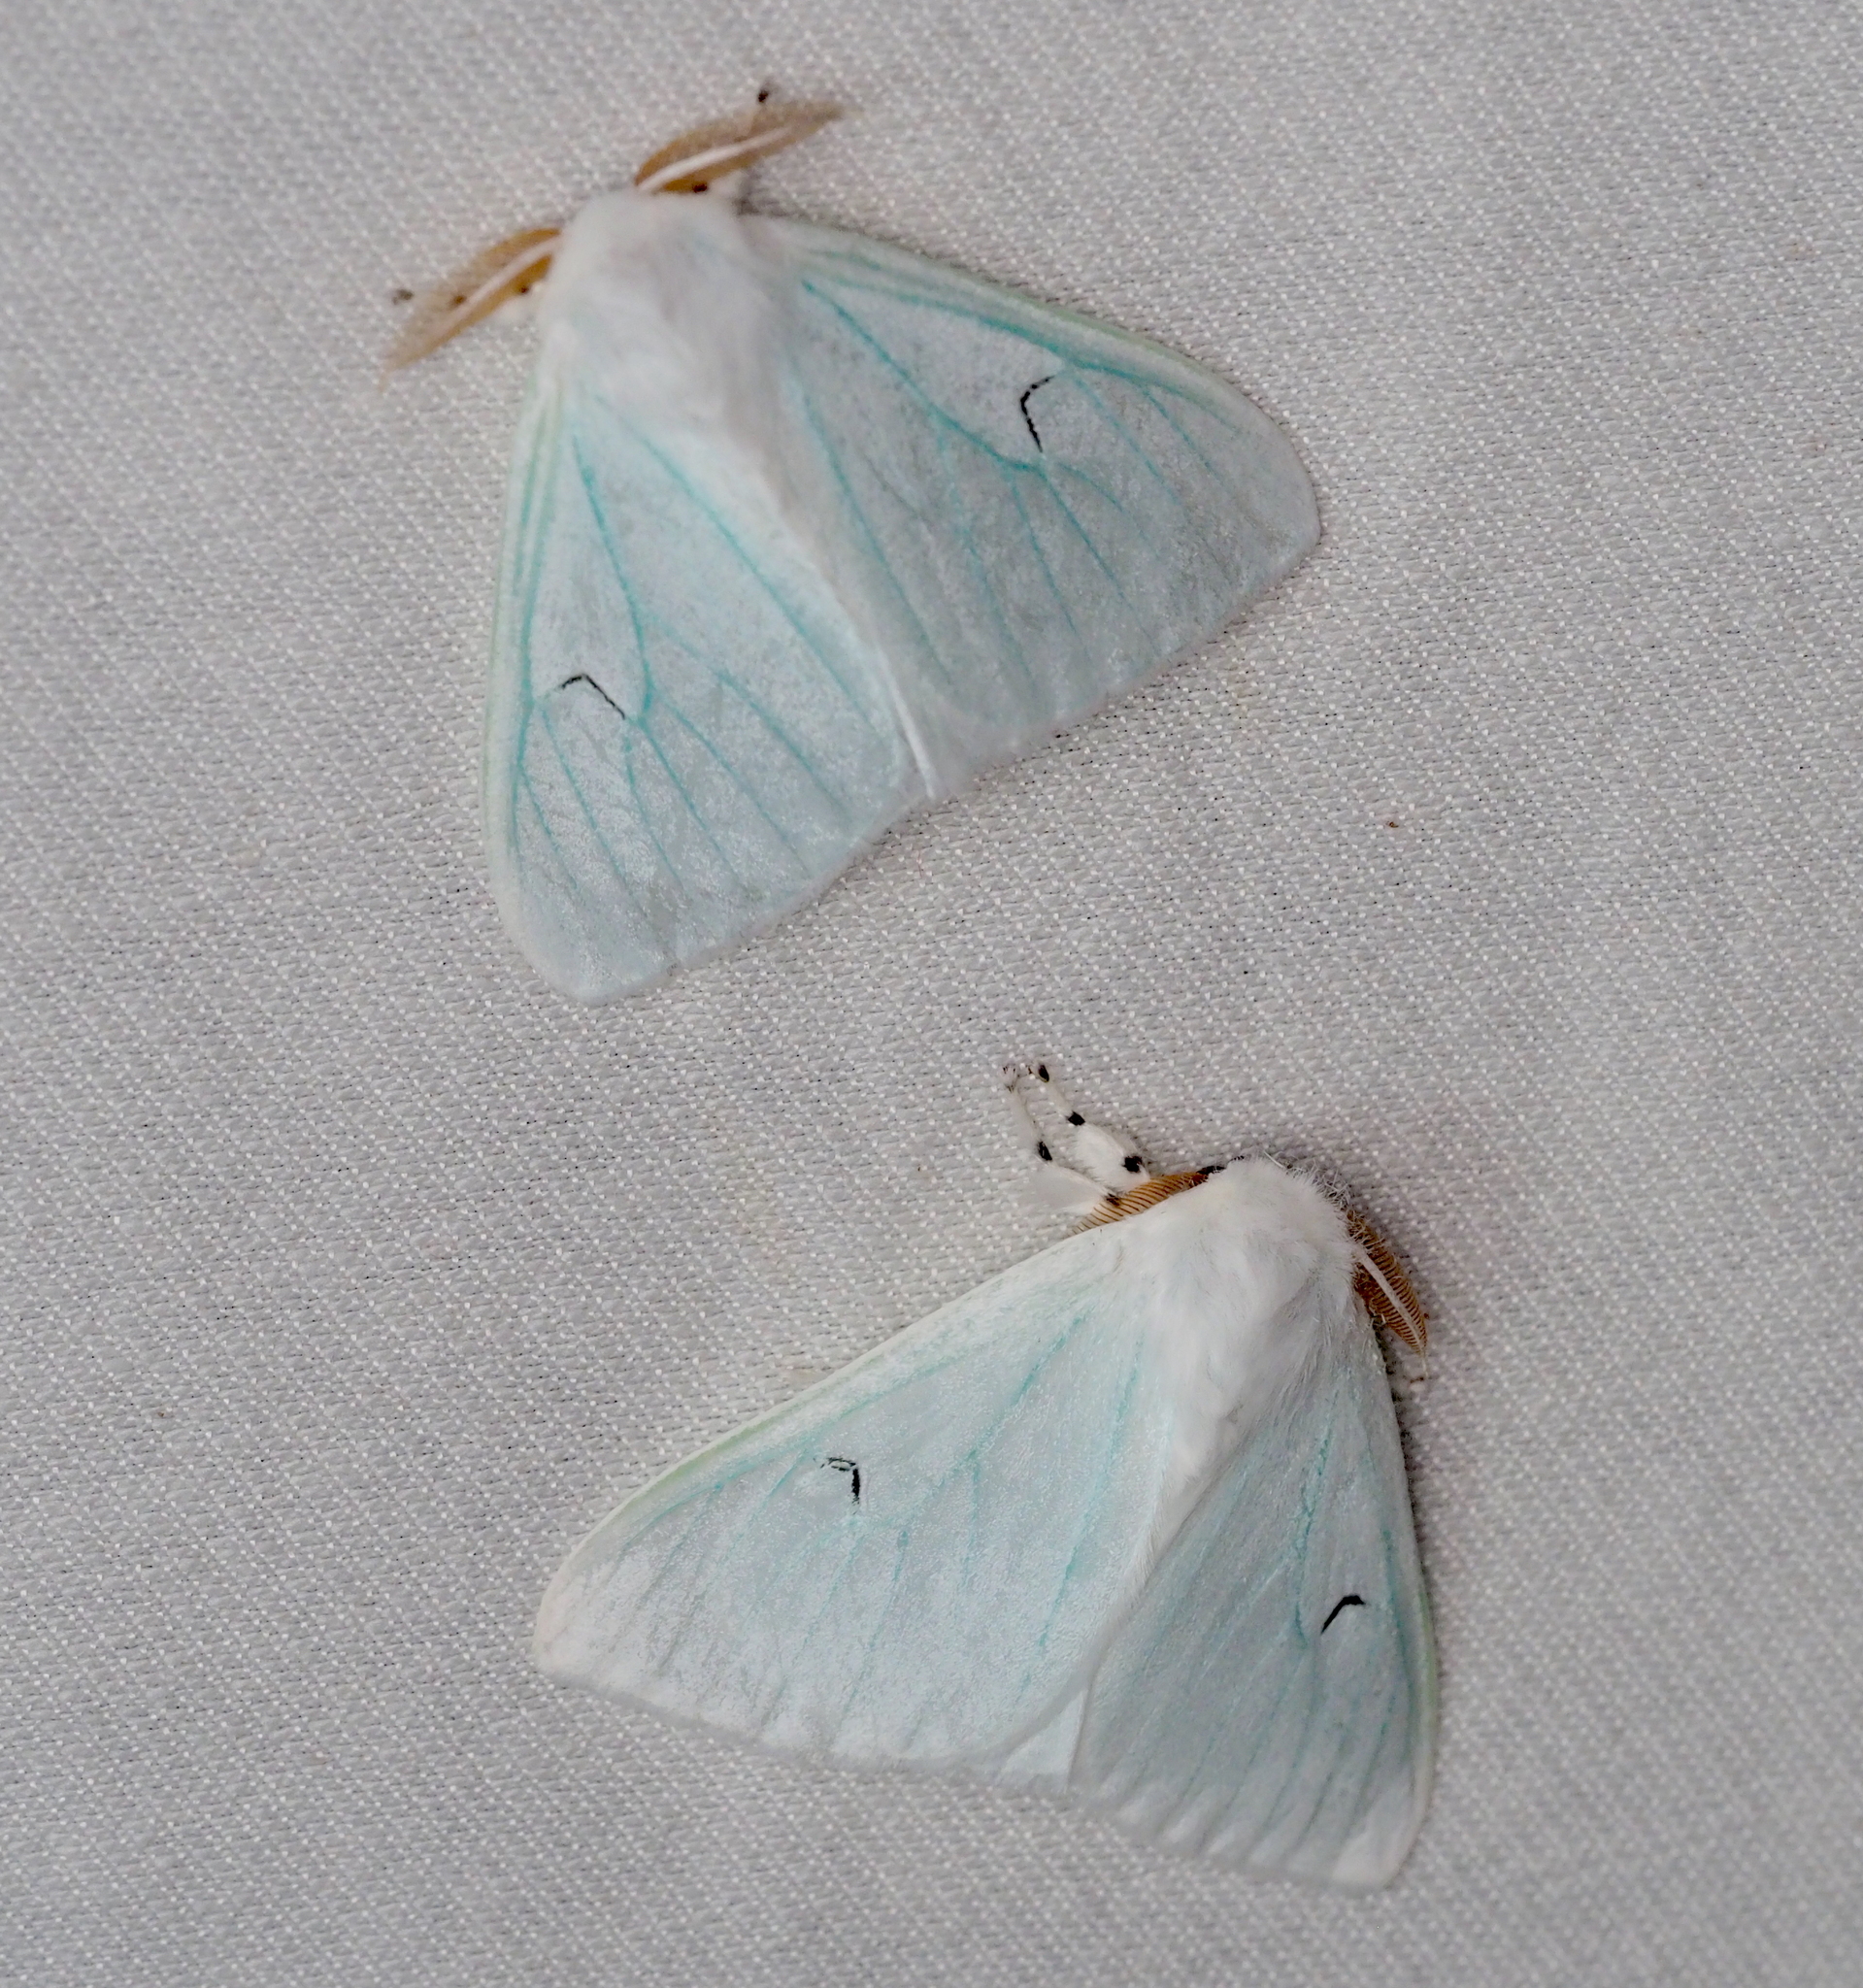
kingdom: Animalia
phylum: Arthropoda
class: Insecta
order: Lepidoptera
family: Erebidae
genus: Arctornis
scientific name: Arctornis l-nigrum
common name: Black v moth
